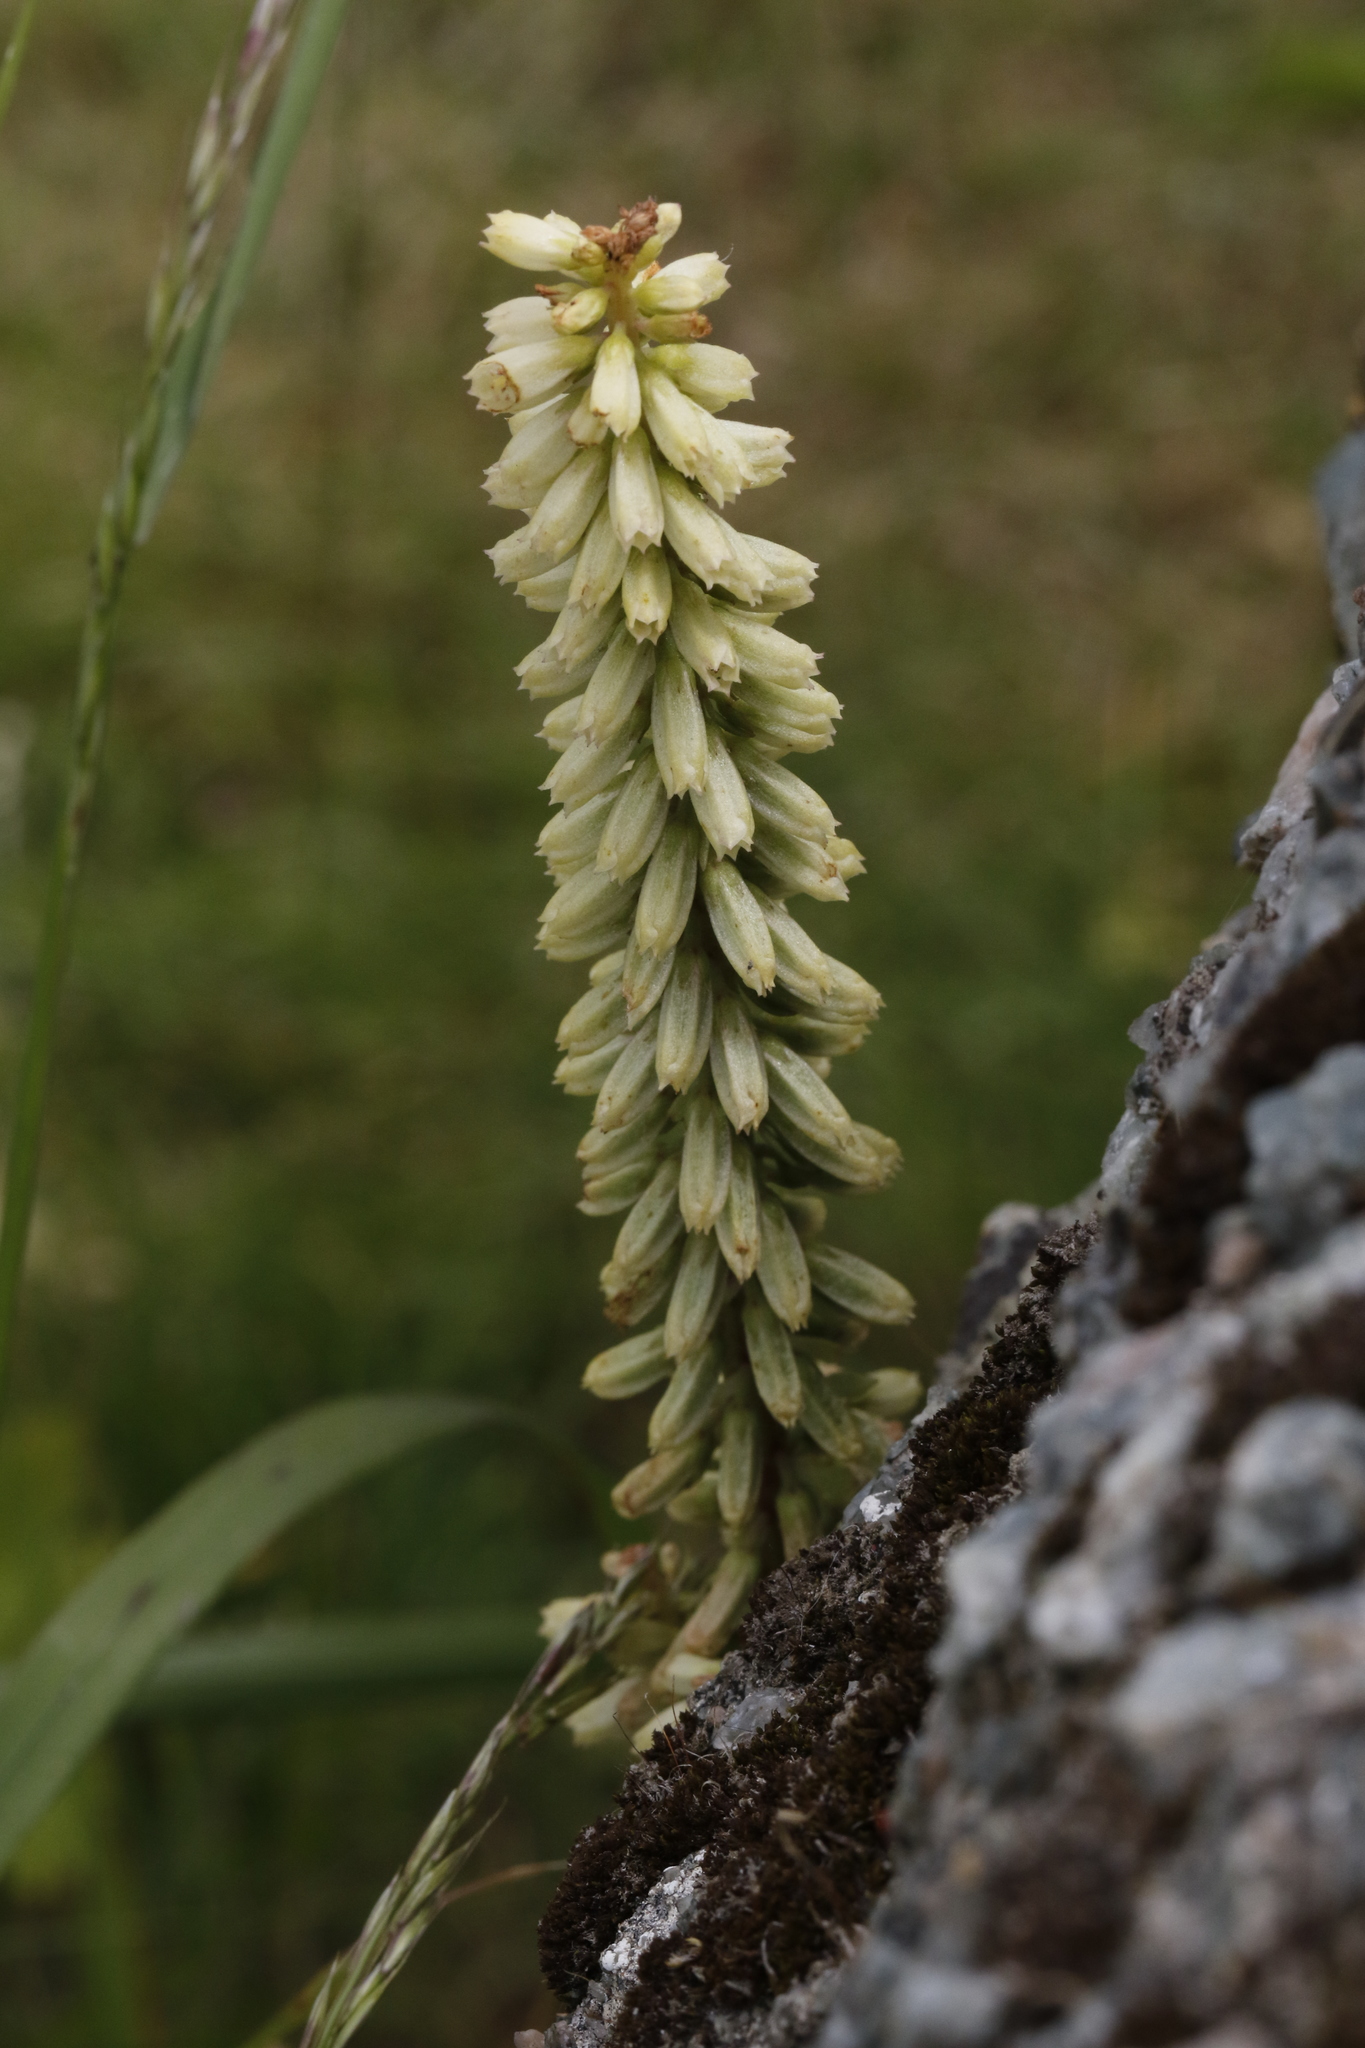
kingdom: Plantae
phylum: Tracheophyta
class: Magnoliopsida
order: Saxifragales
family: Crassulaceae
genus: Umbilicus
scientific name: Umbilicus rupestris
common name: Navelwort
